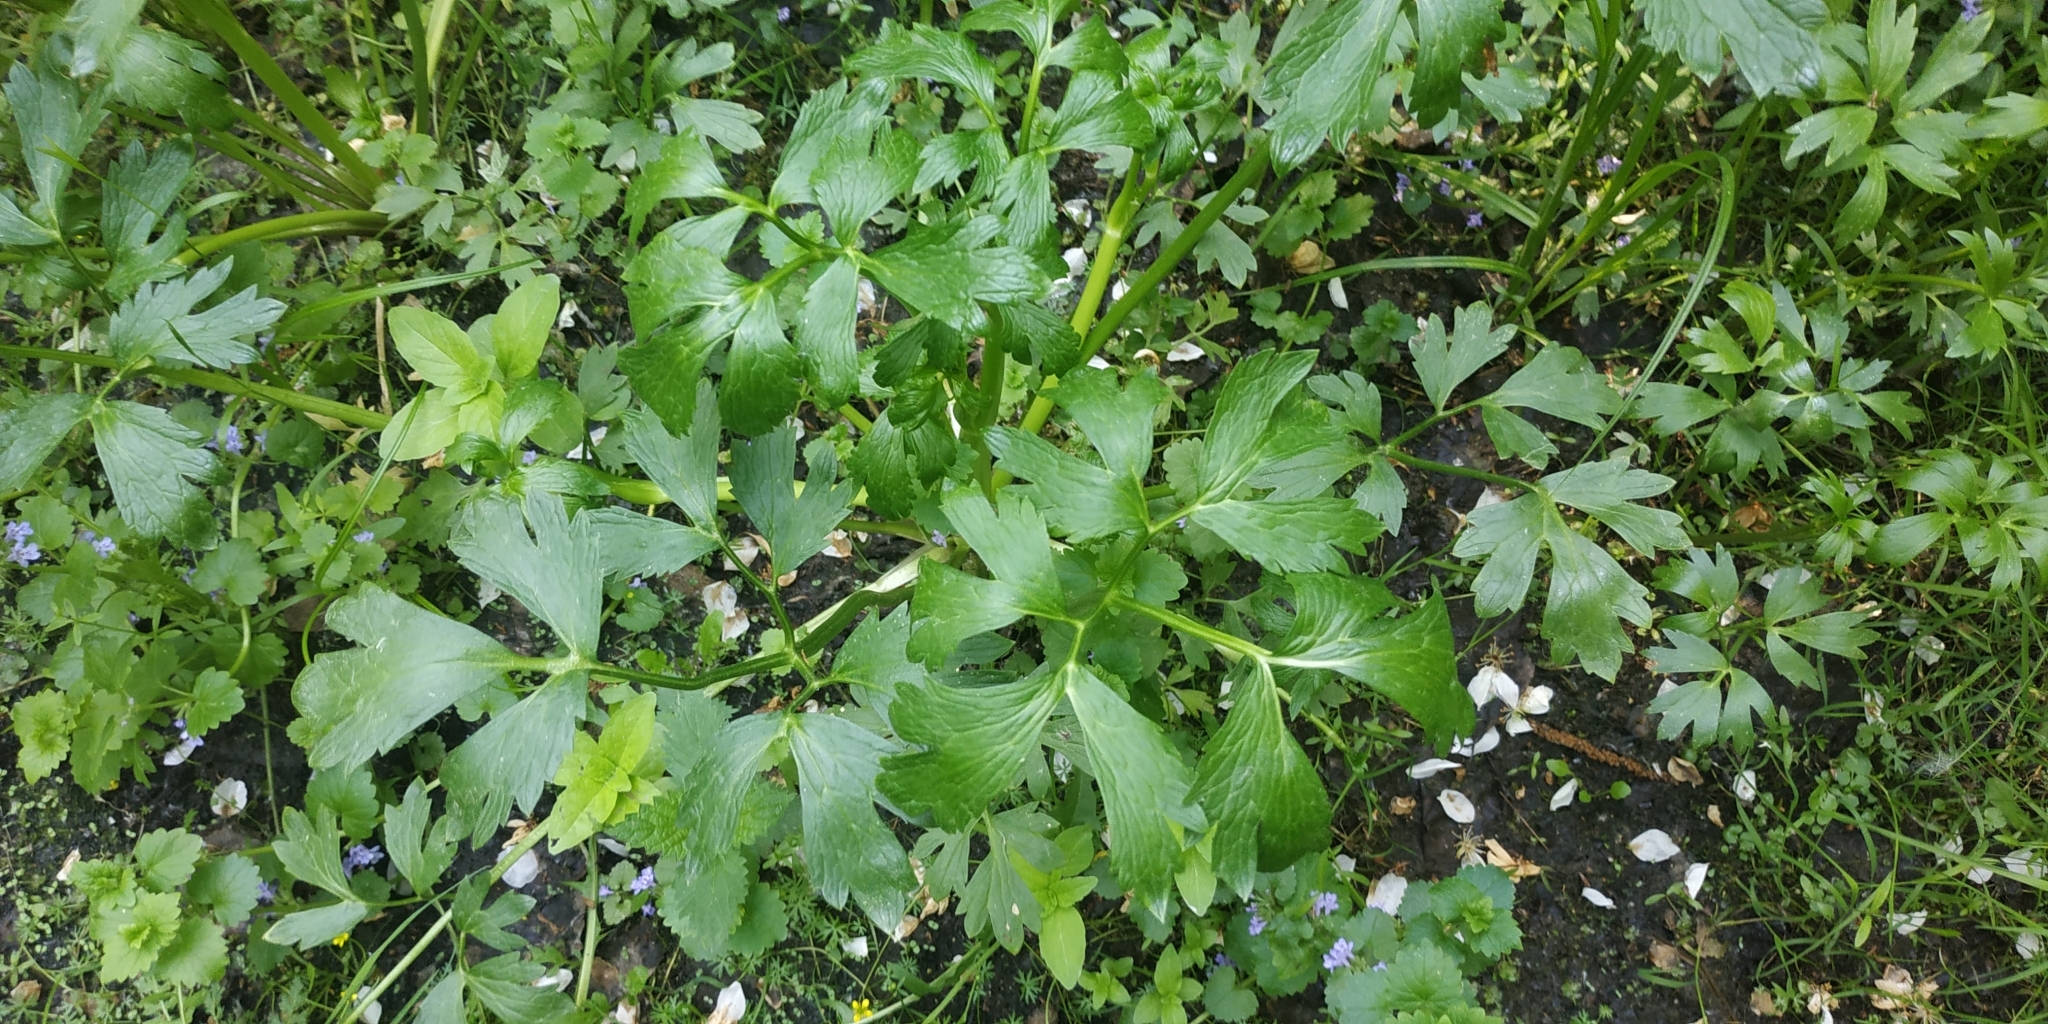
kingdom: Plantae
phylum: Tracheophyta
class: Magnoliopsida
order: Ranunculales
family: Ranunculaceae
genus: Ranunculus
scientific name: Ranunculus repens
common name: Creeping buttercup
